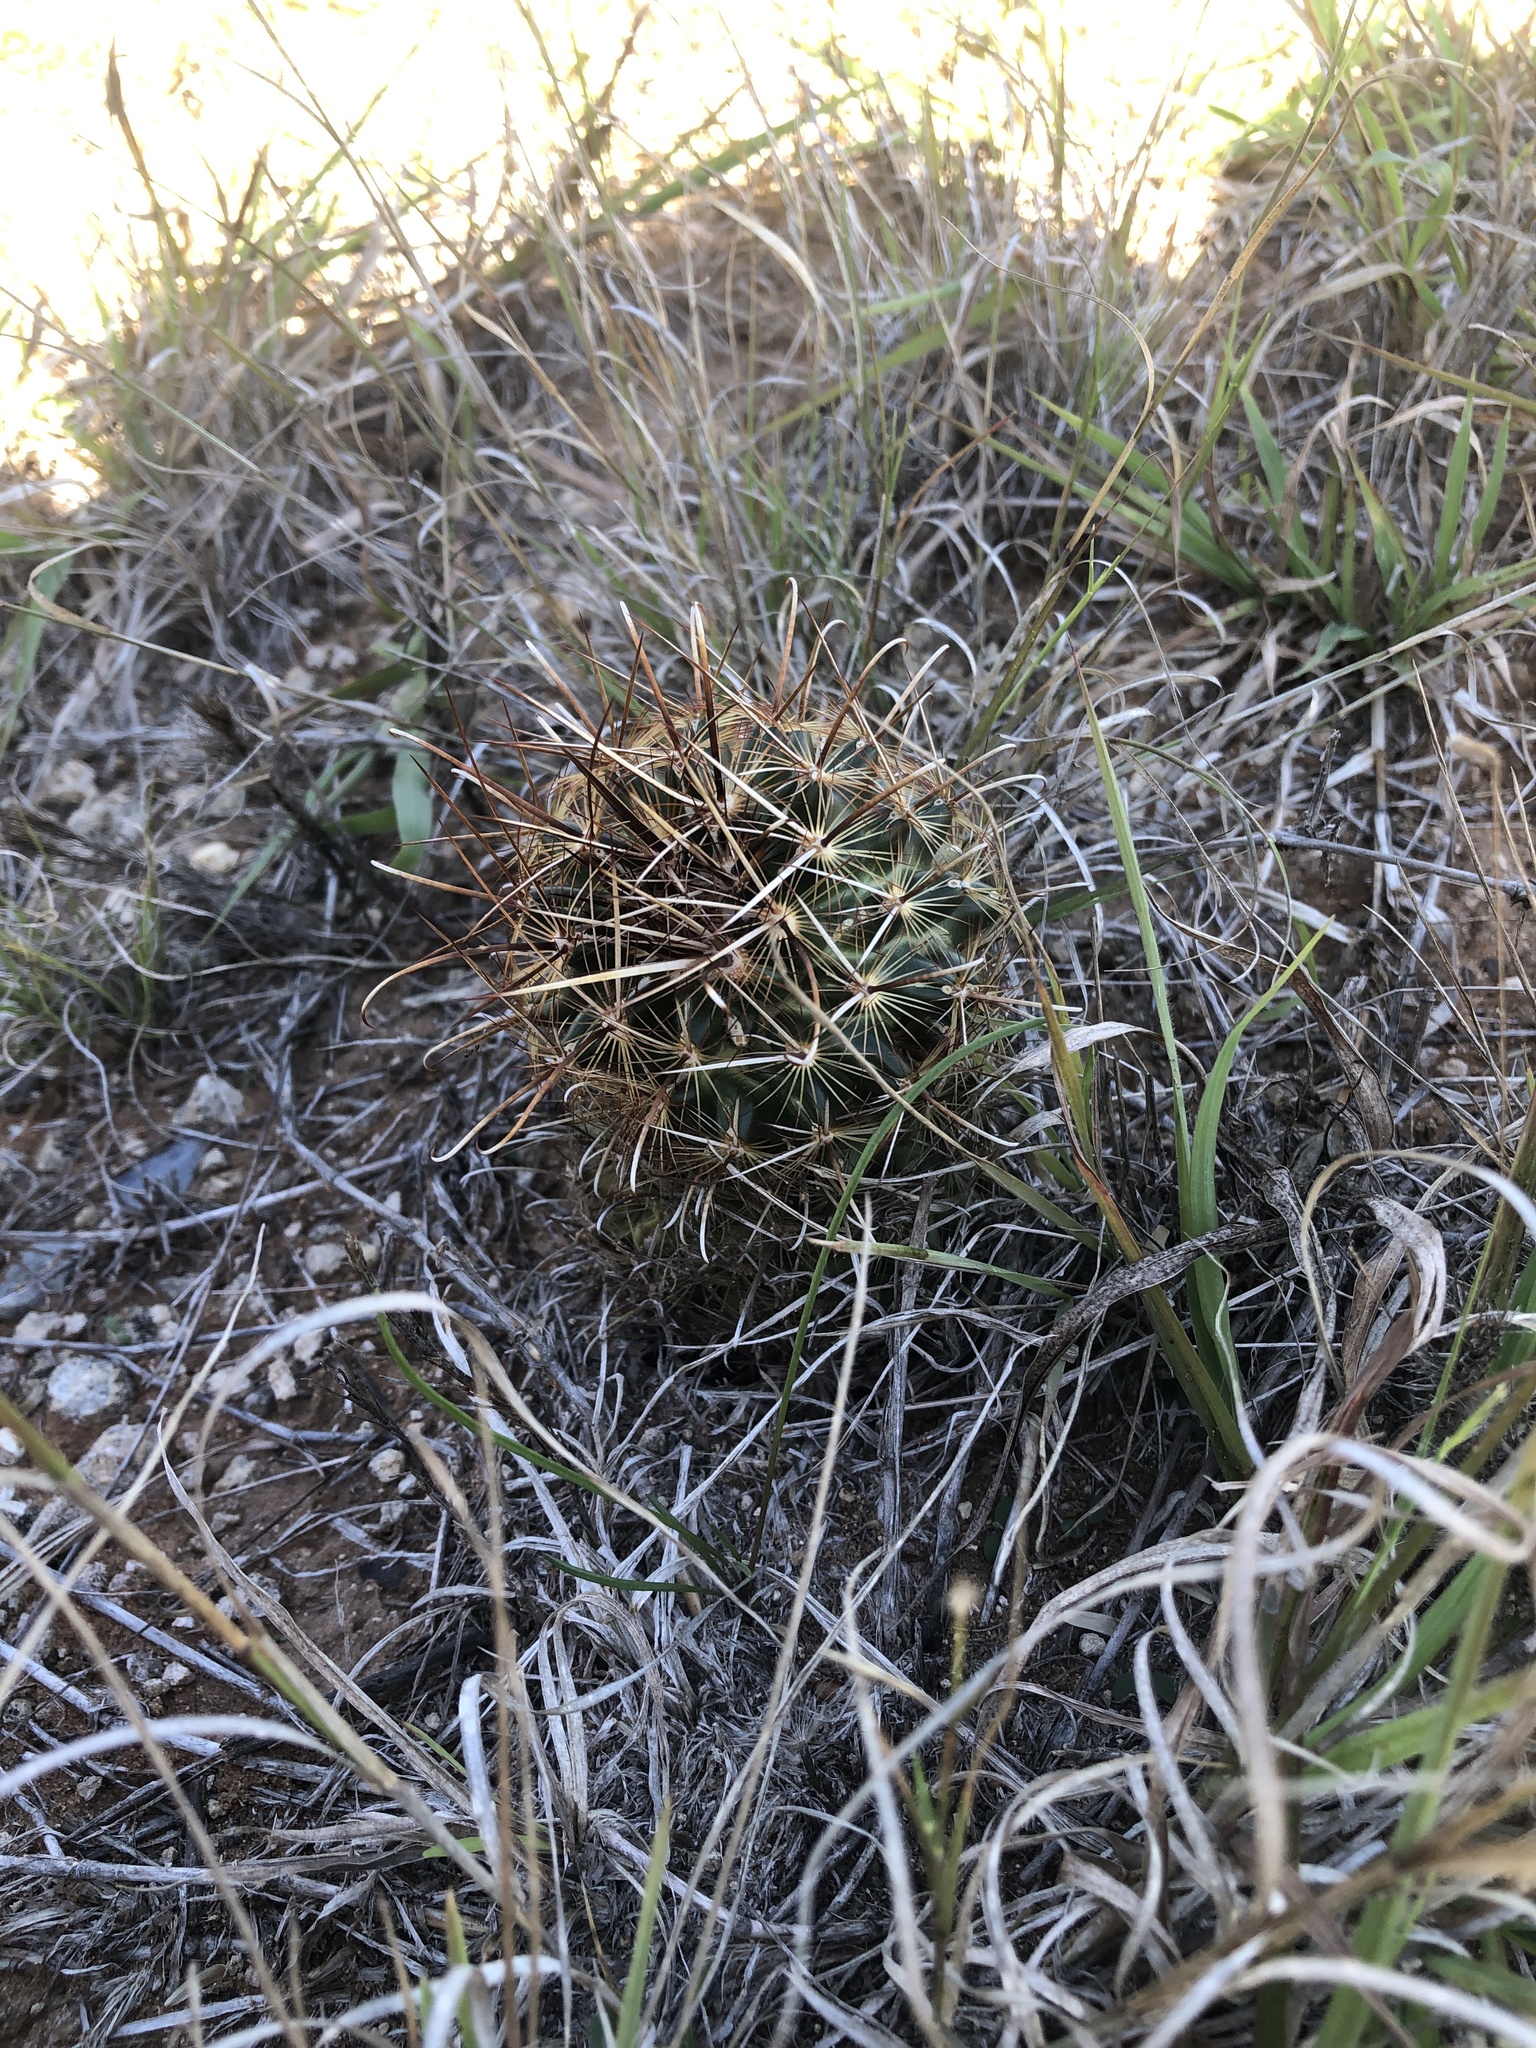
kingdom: Plantae
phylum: Tracheophyta
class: Magnoliopsida
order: Caryophyllales
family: Cactaceae
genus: Sclerocactus
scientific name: Sclerocactus scheerii
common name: Scheer's fish-hook cactus
